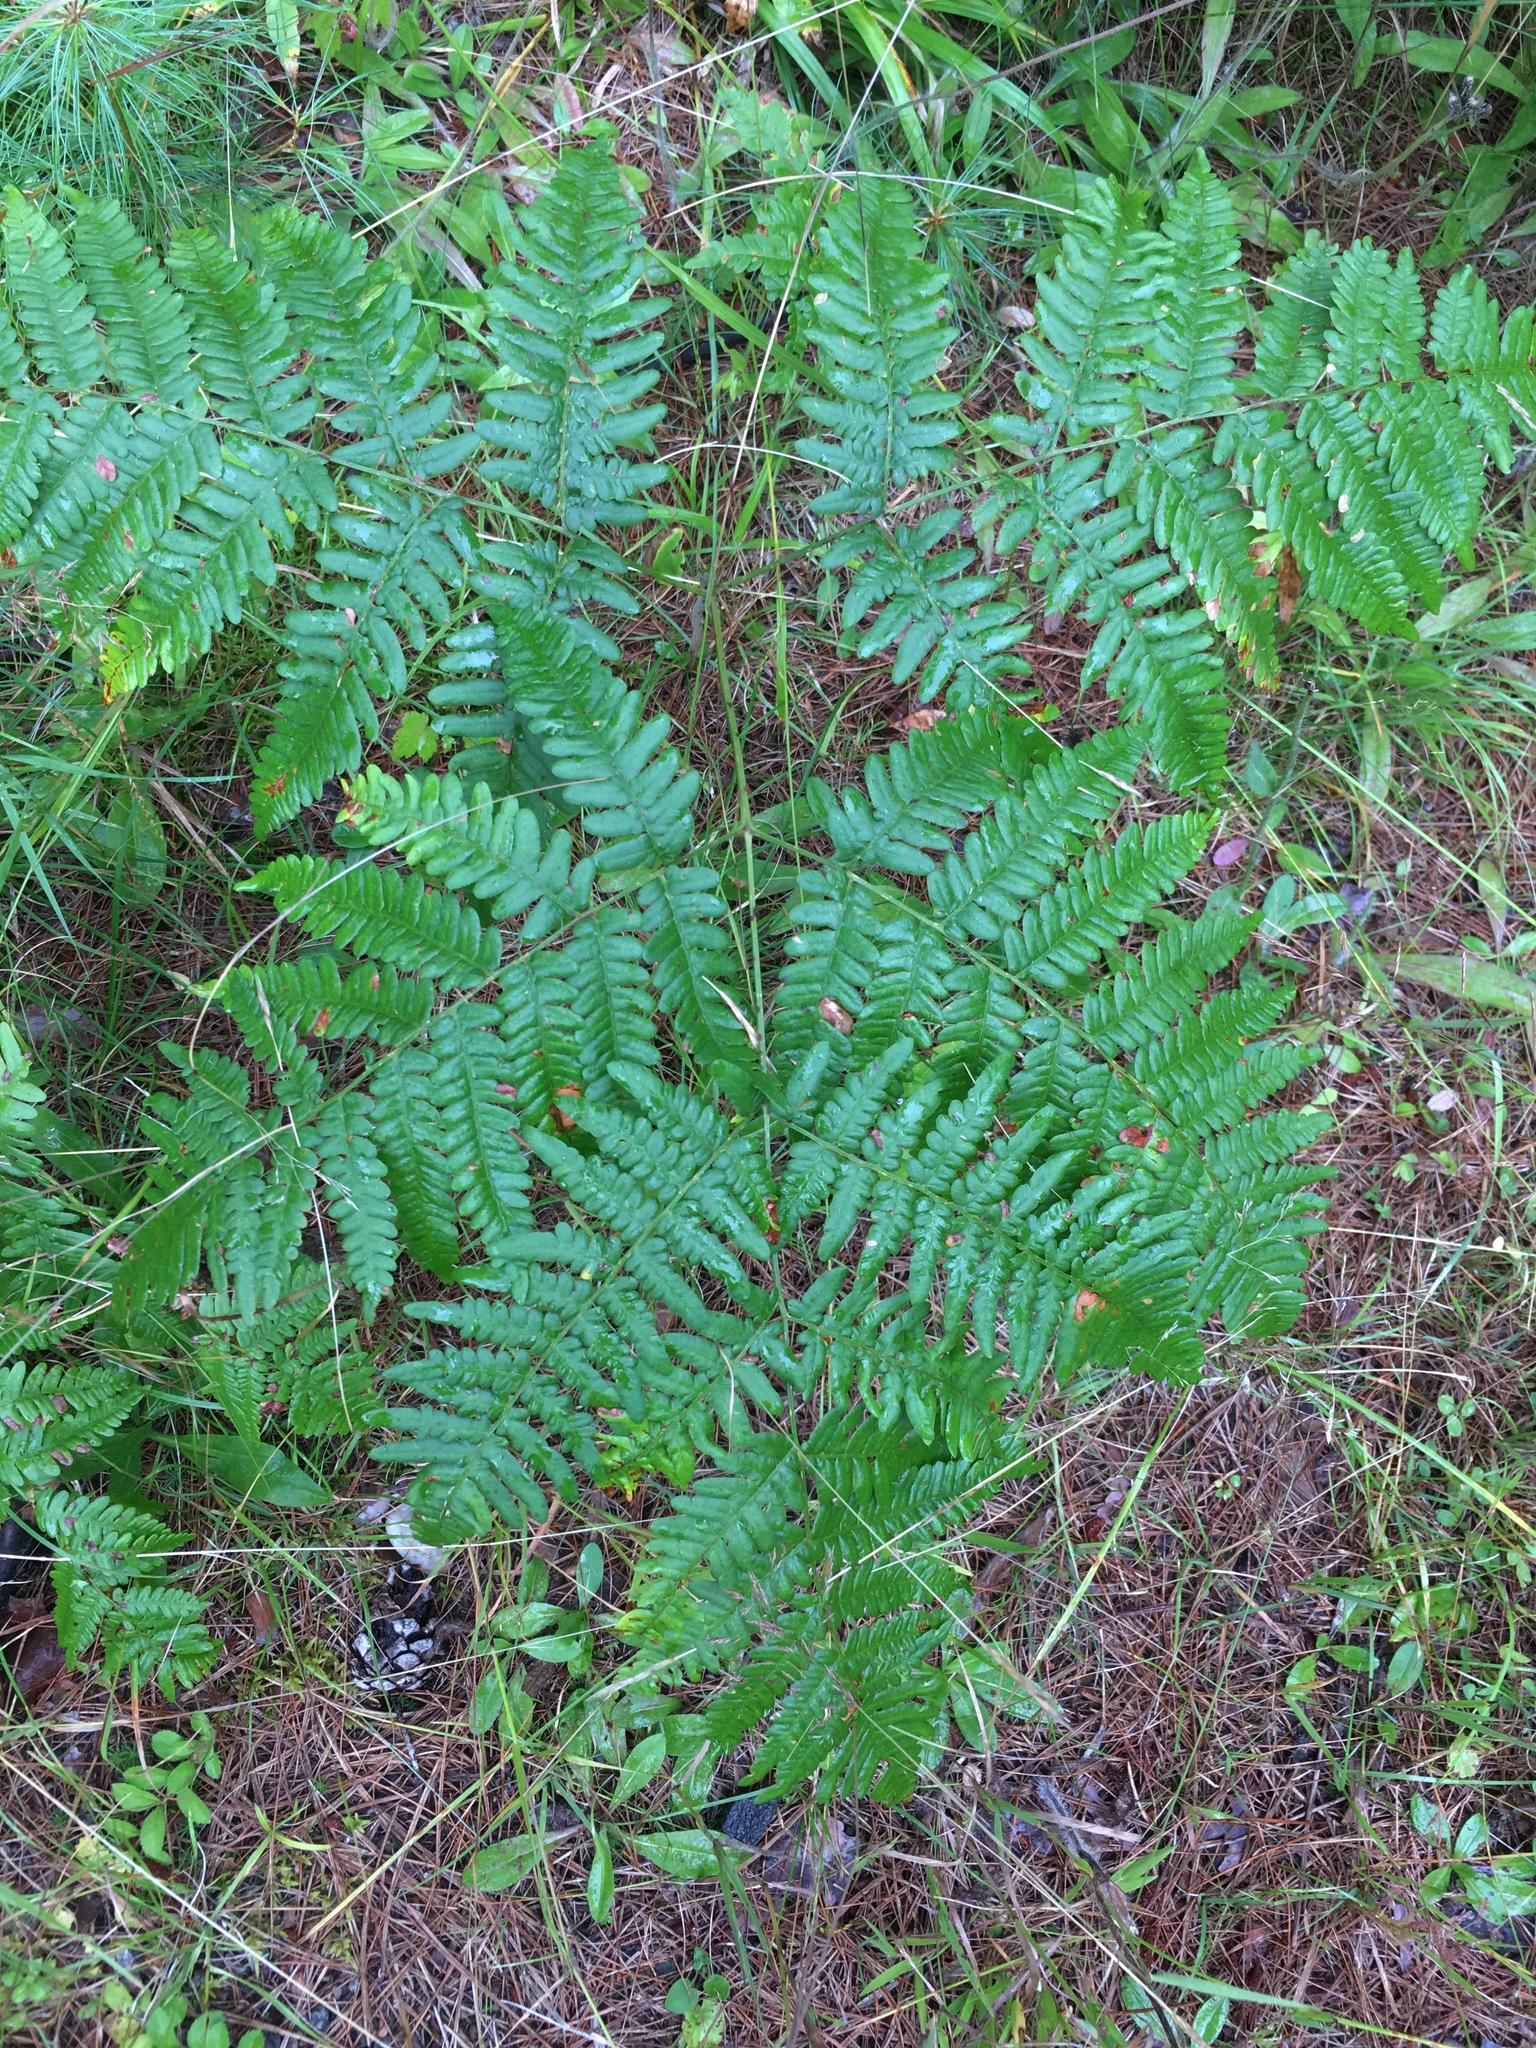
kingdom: Plantae
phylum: Tracheophyta
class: Polypodiopsida
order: Polypodiales
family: Dennstaedtiaceae
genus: Pteridium
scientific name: Pteridium aquilinum
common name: Bracken
